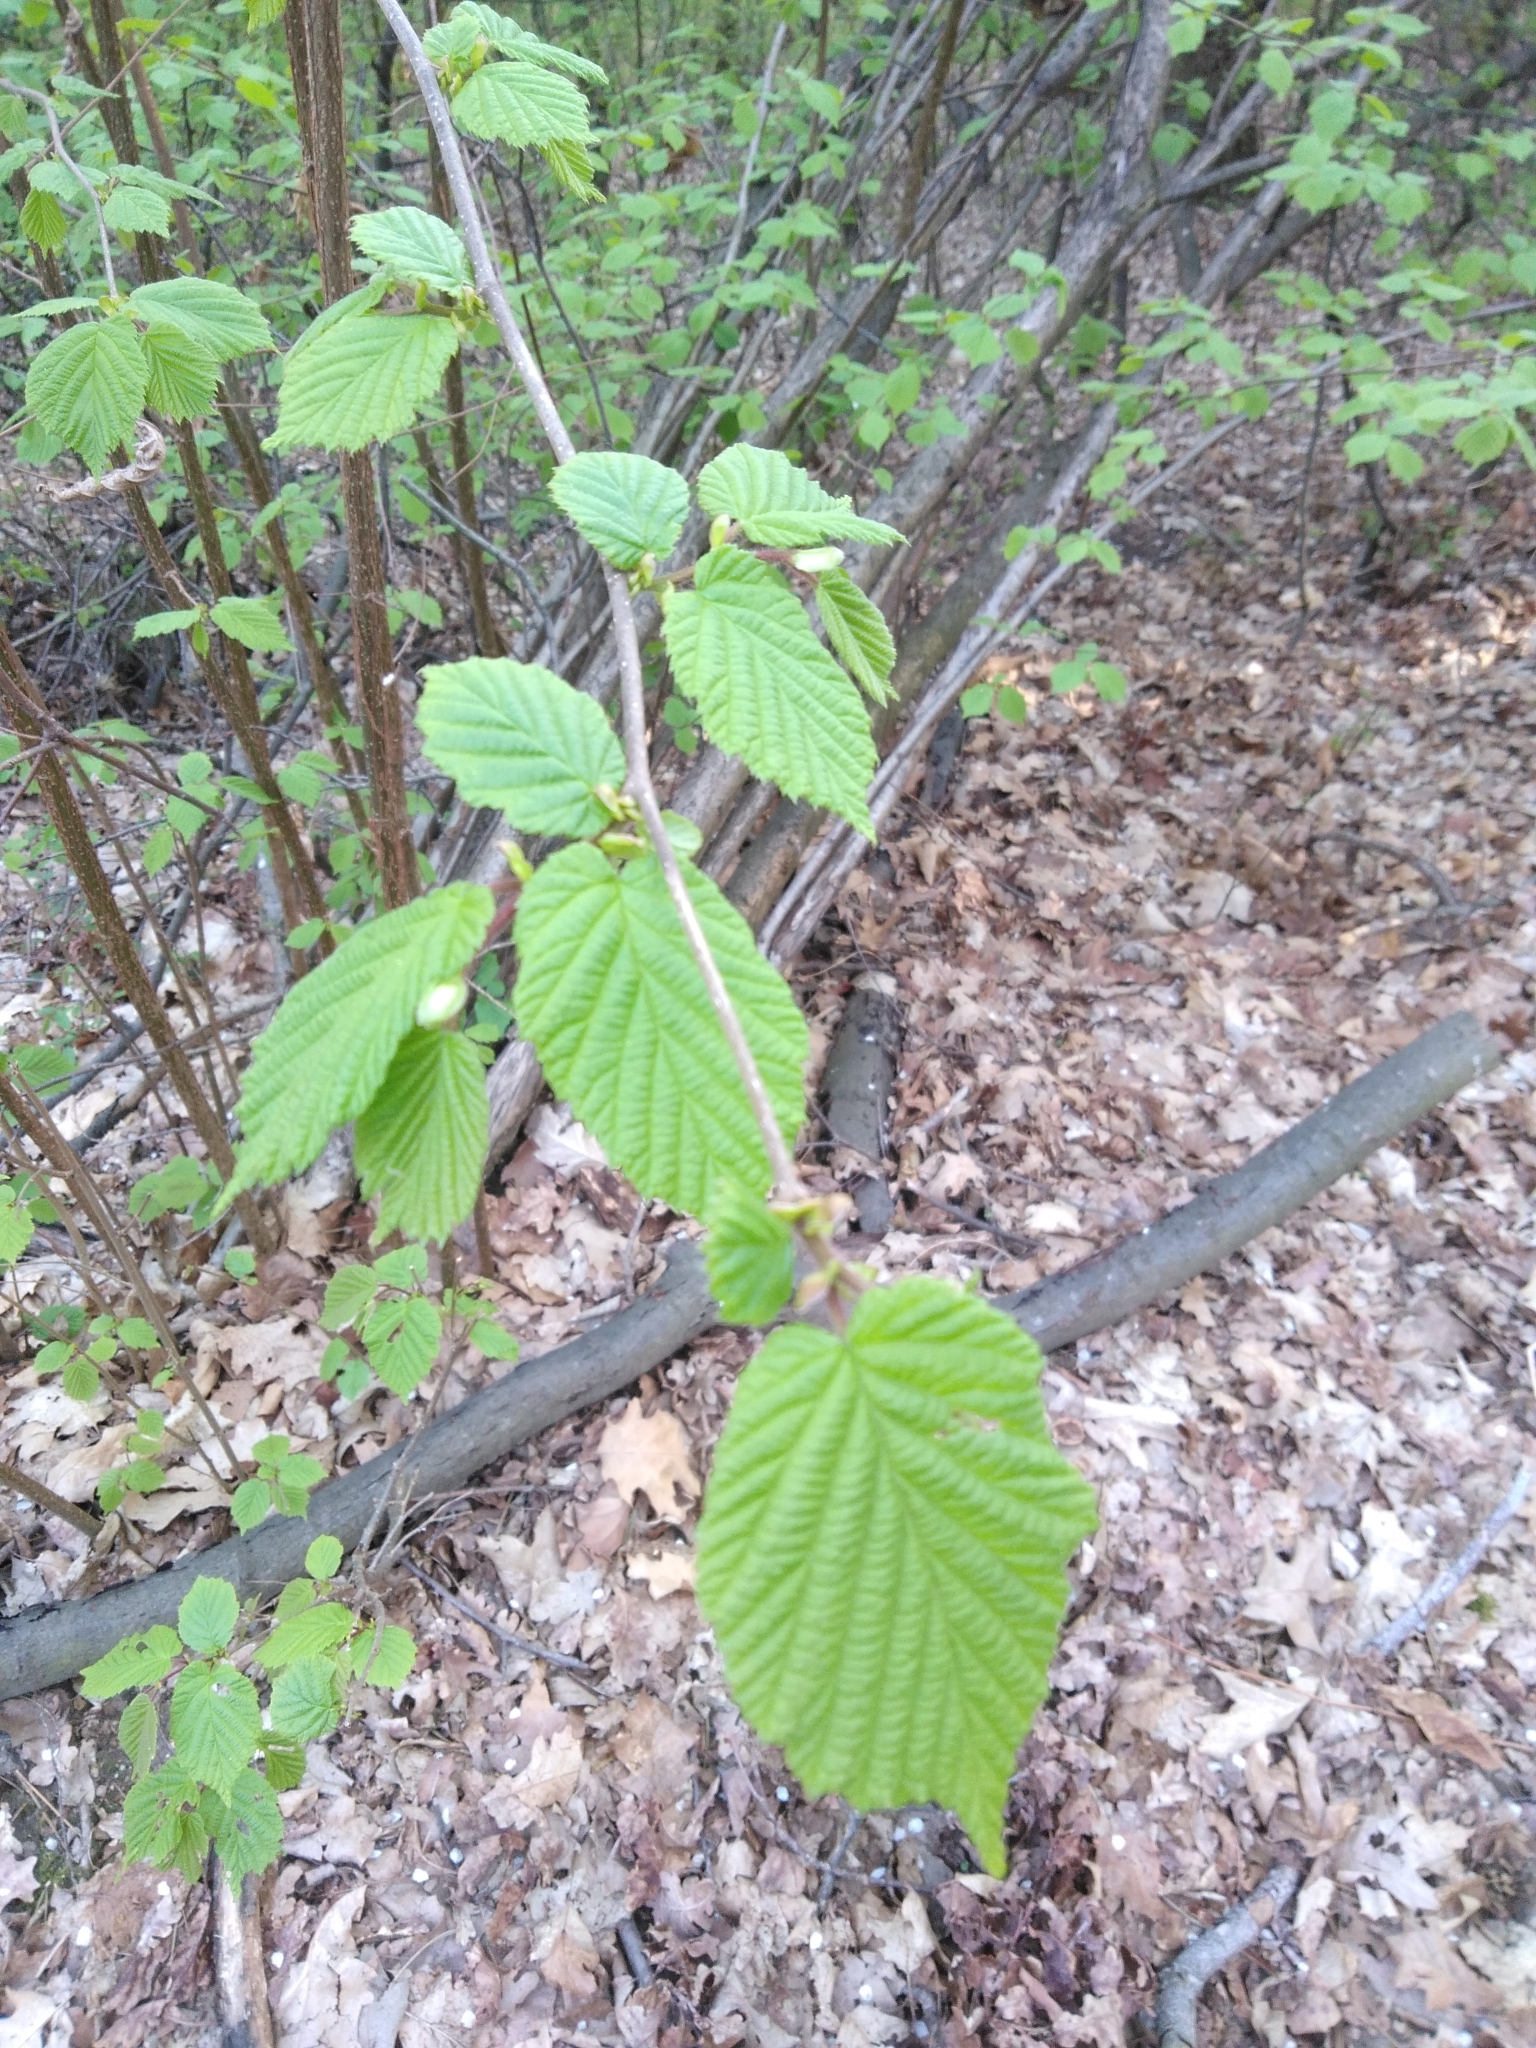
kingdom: Plantae
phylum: Tracheophyta
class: Magnoliopsida
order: Fagales
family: Betulaceae
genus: Corylus
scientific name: Corylus avellana
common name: European hazel
